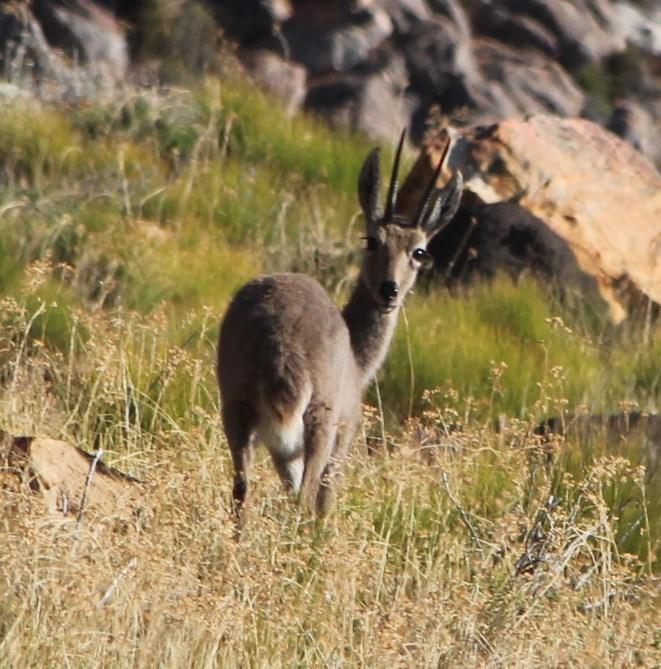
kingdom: Animalia
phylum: Chordata
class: Mammalia
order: Artiodactyla
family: Bovidae
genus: Pelea
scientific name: Pelea capreolus
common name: Common rhebok
